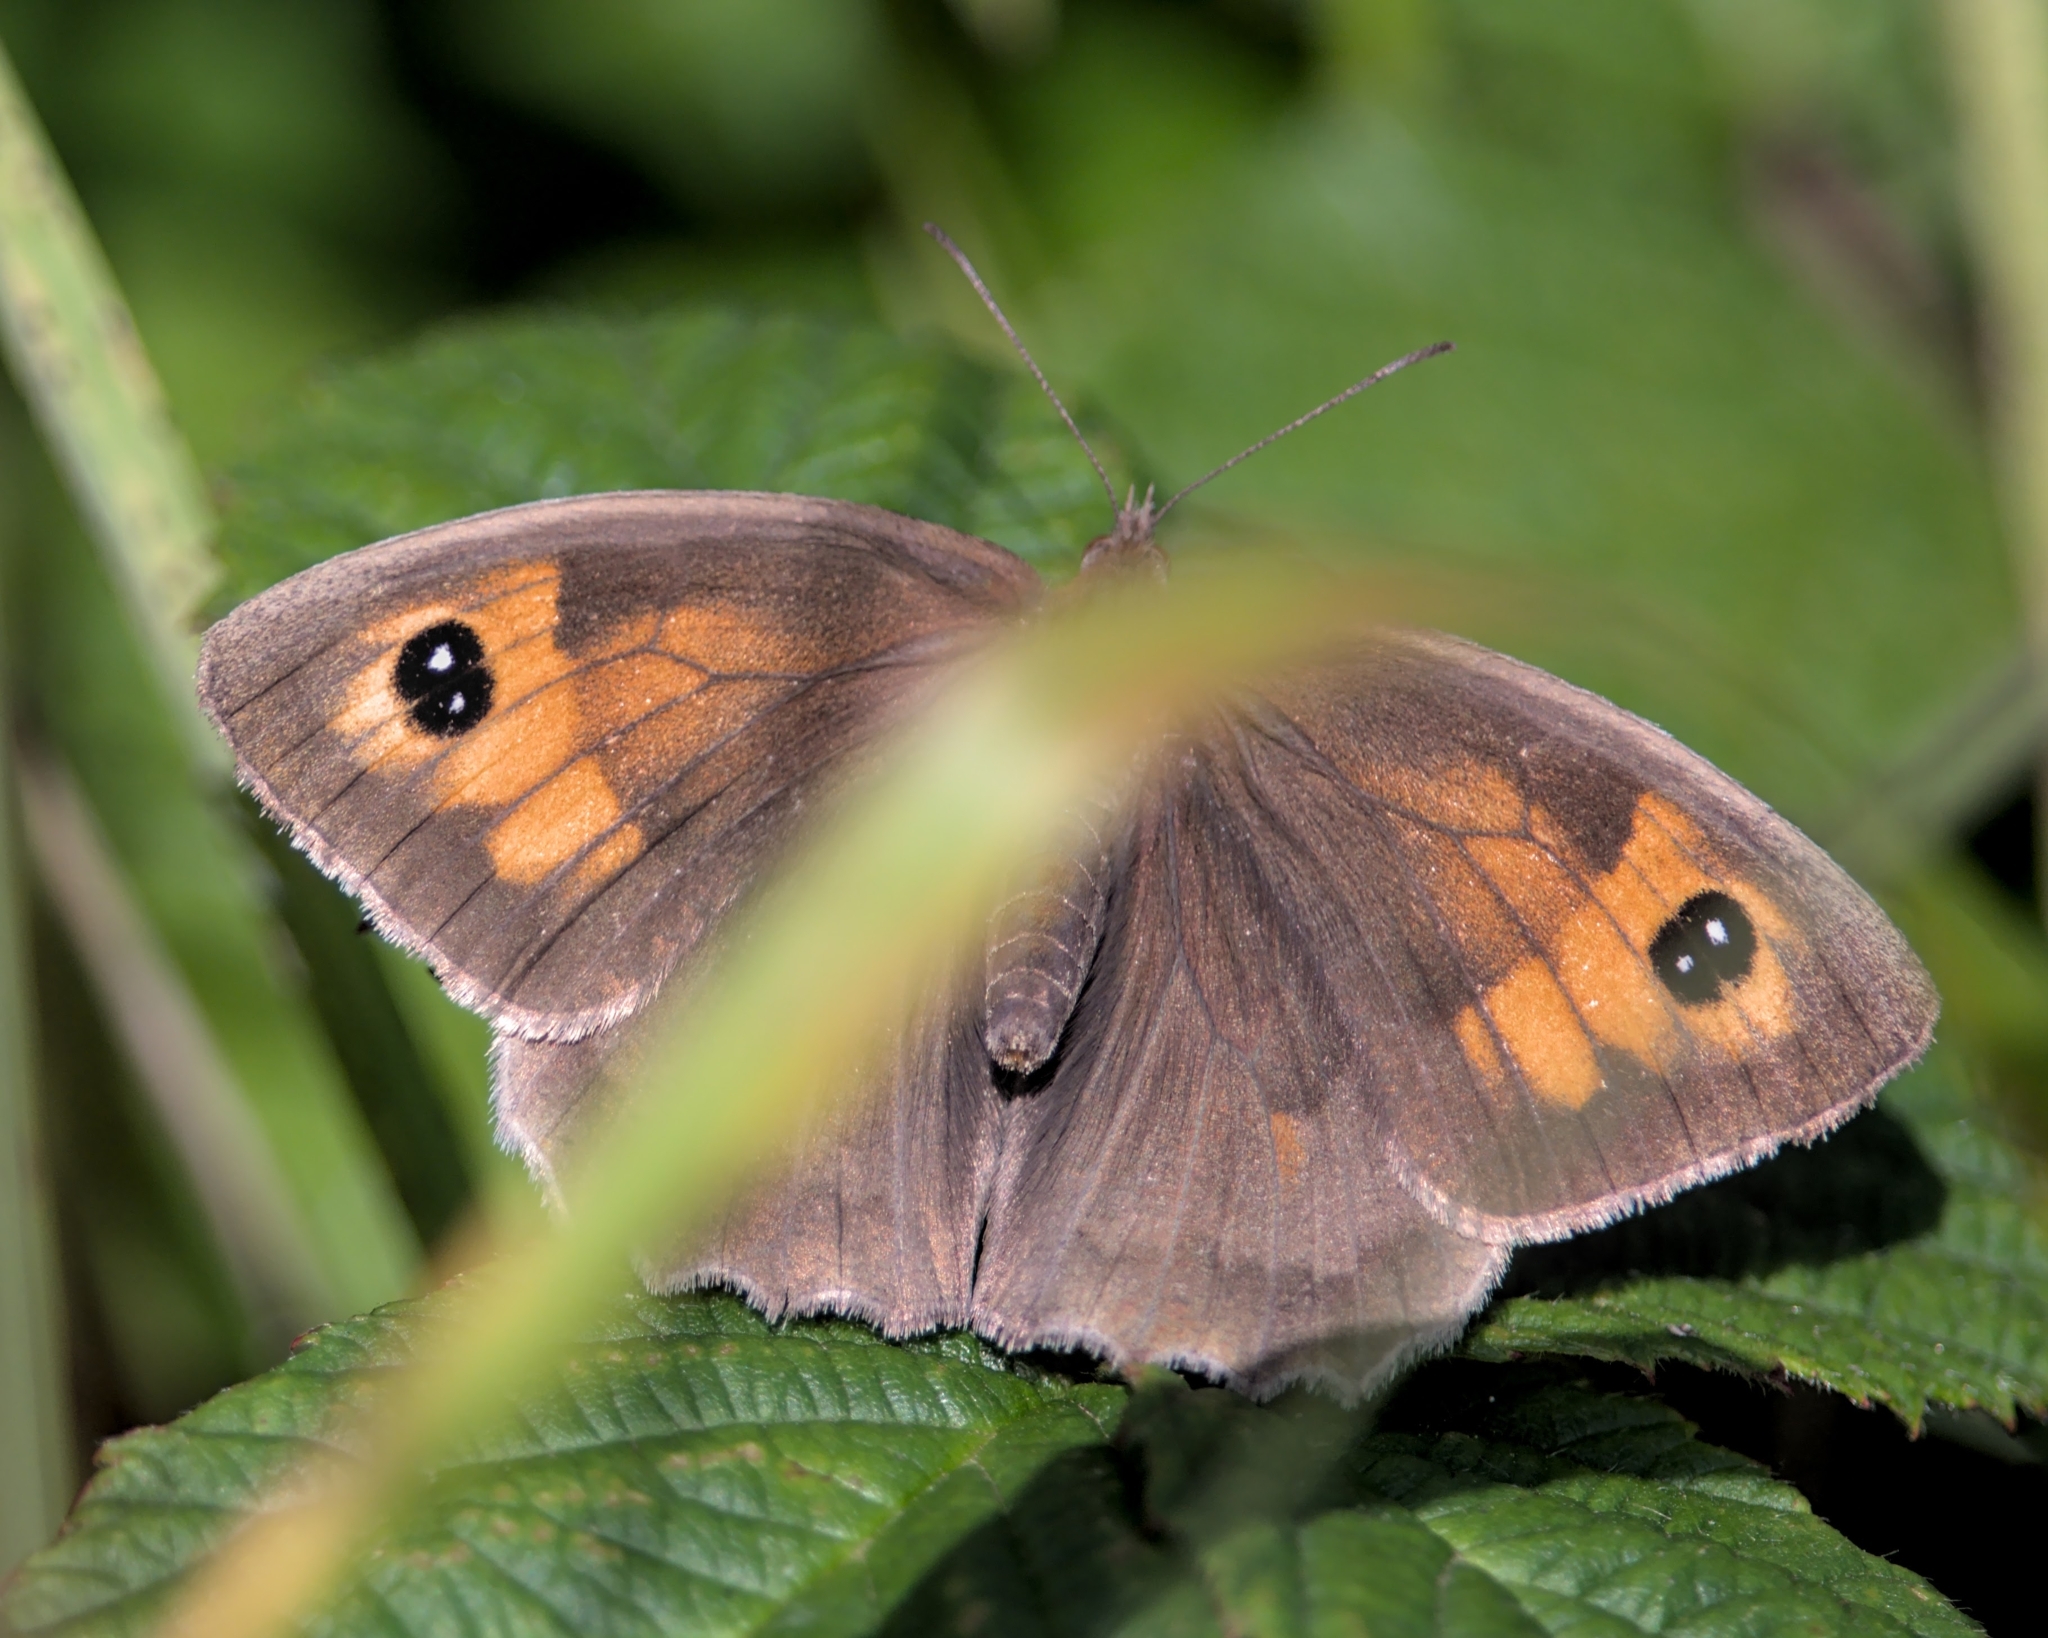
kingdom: Animalia
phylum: Arthropoda
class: Insecta
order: Lepidoptera
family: Nymphalidae
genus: Maniola
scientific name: Maniola jurtina
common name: Meadow brown
